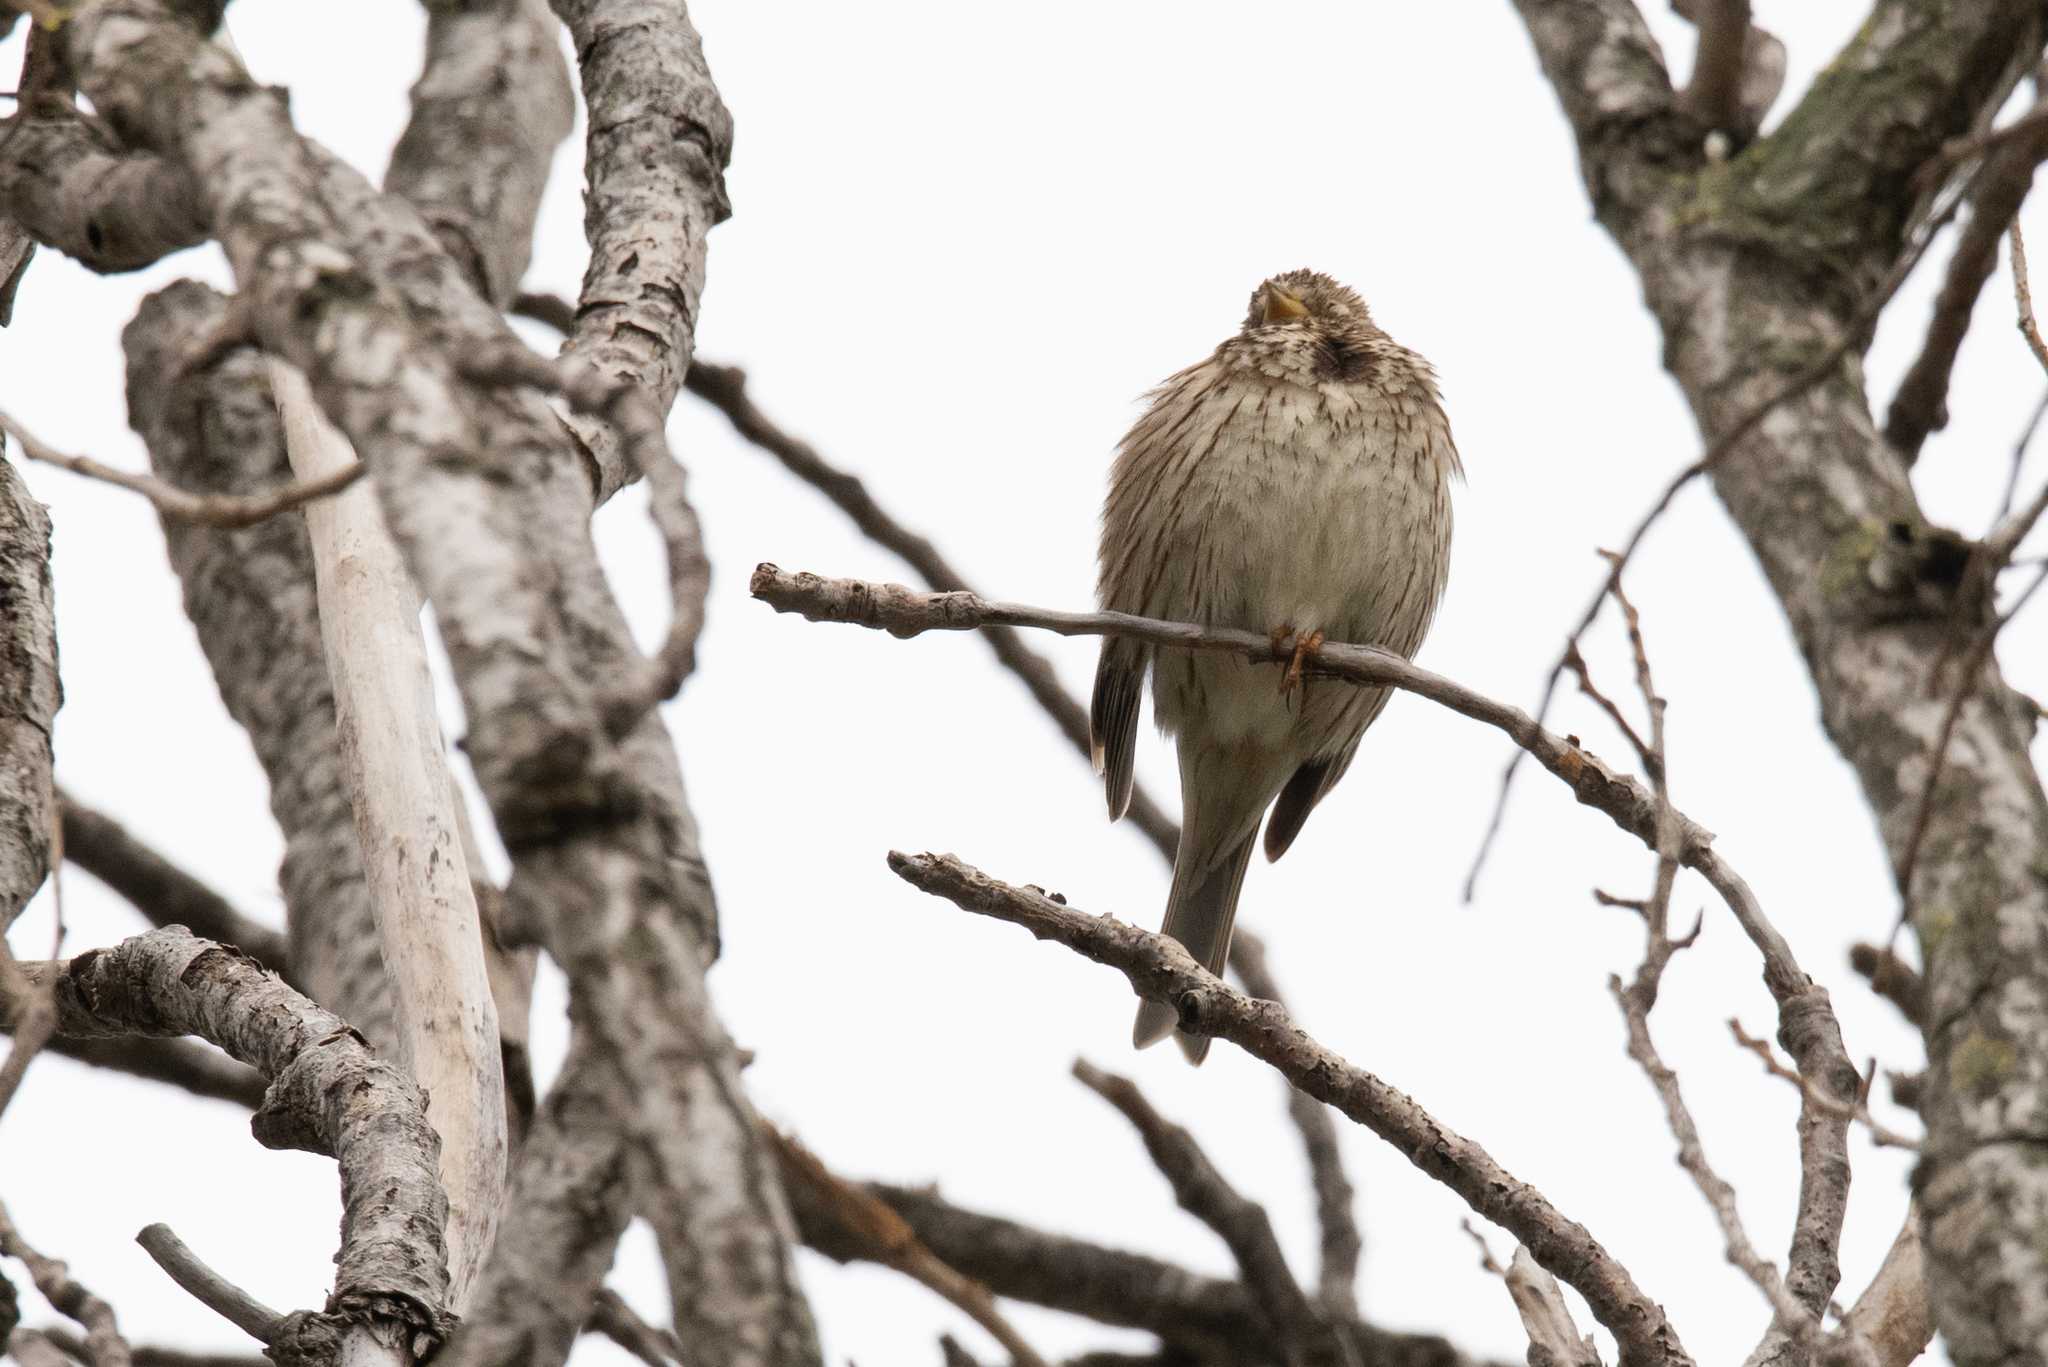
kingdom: Animalia
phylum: Chordata
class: Aves
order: Passeriformes
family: Emberizidae
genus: Emberiza
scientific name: Emberiza calandra
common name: Corn bunting
